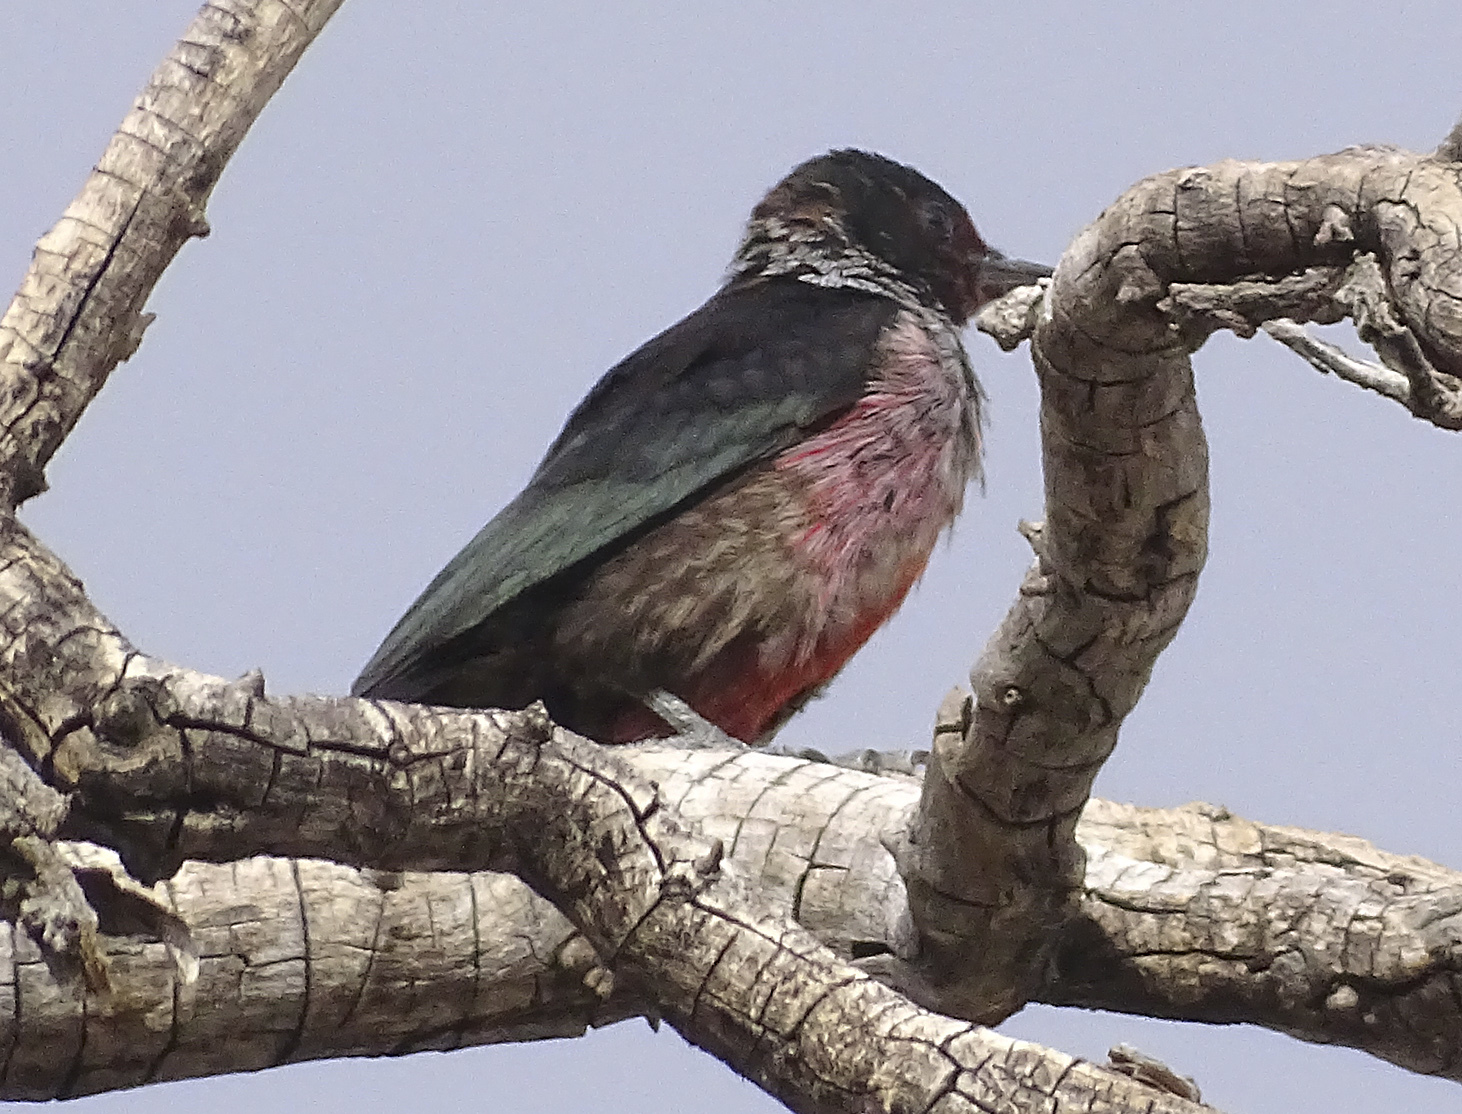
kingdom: Animalia
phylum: Chordata
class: Aves
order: Piciformes
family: Picidae
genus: Melanerpes
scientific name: Melanerpes lewis
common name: Lewis's woodpecker
